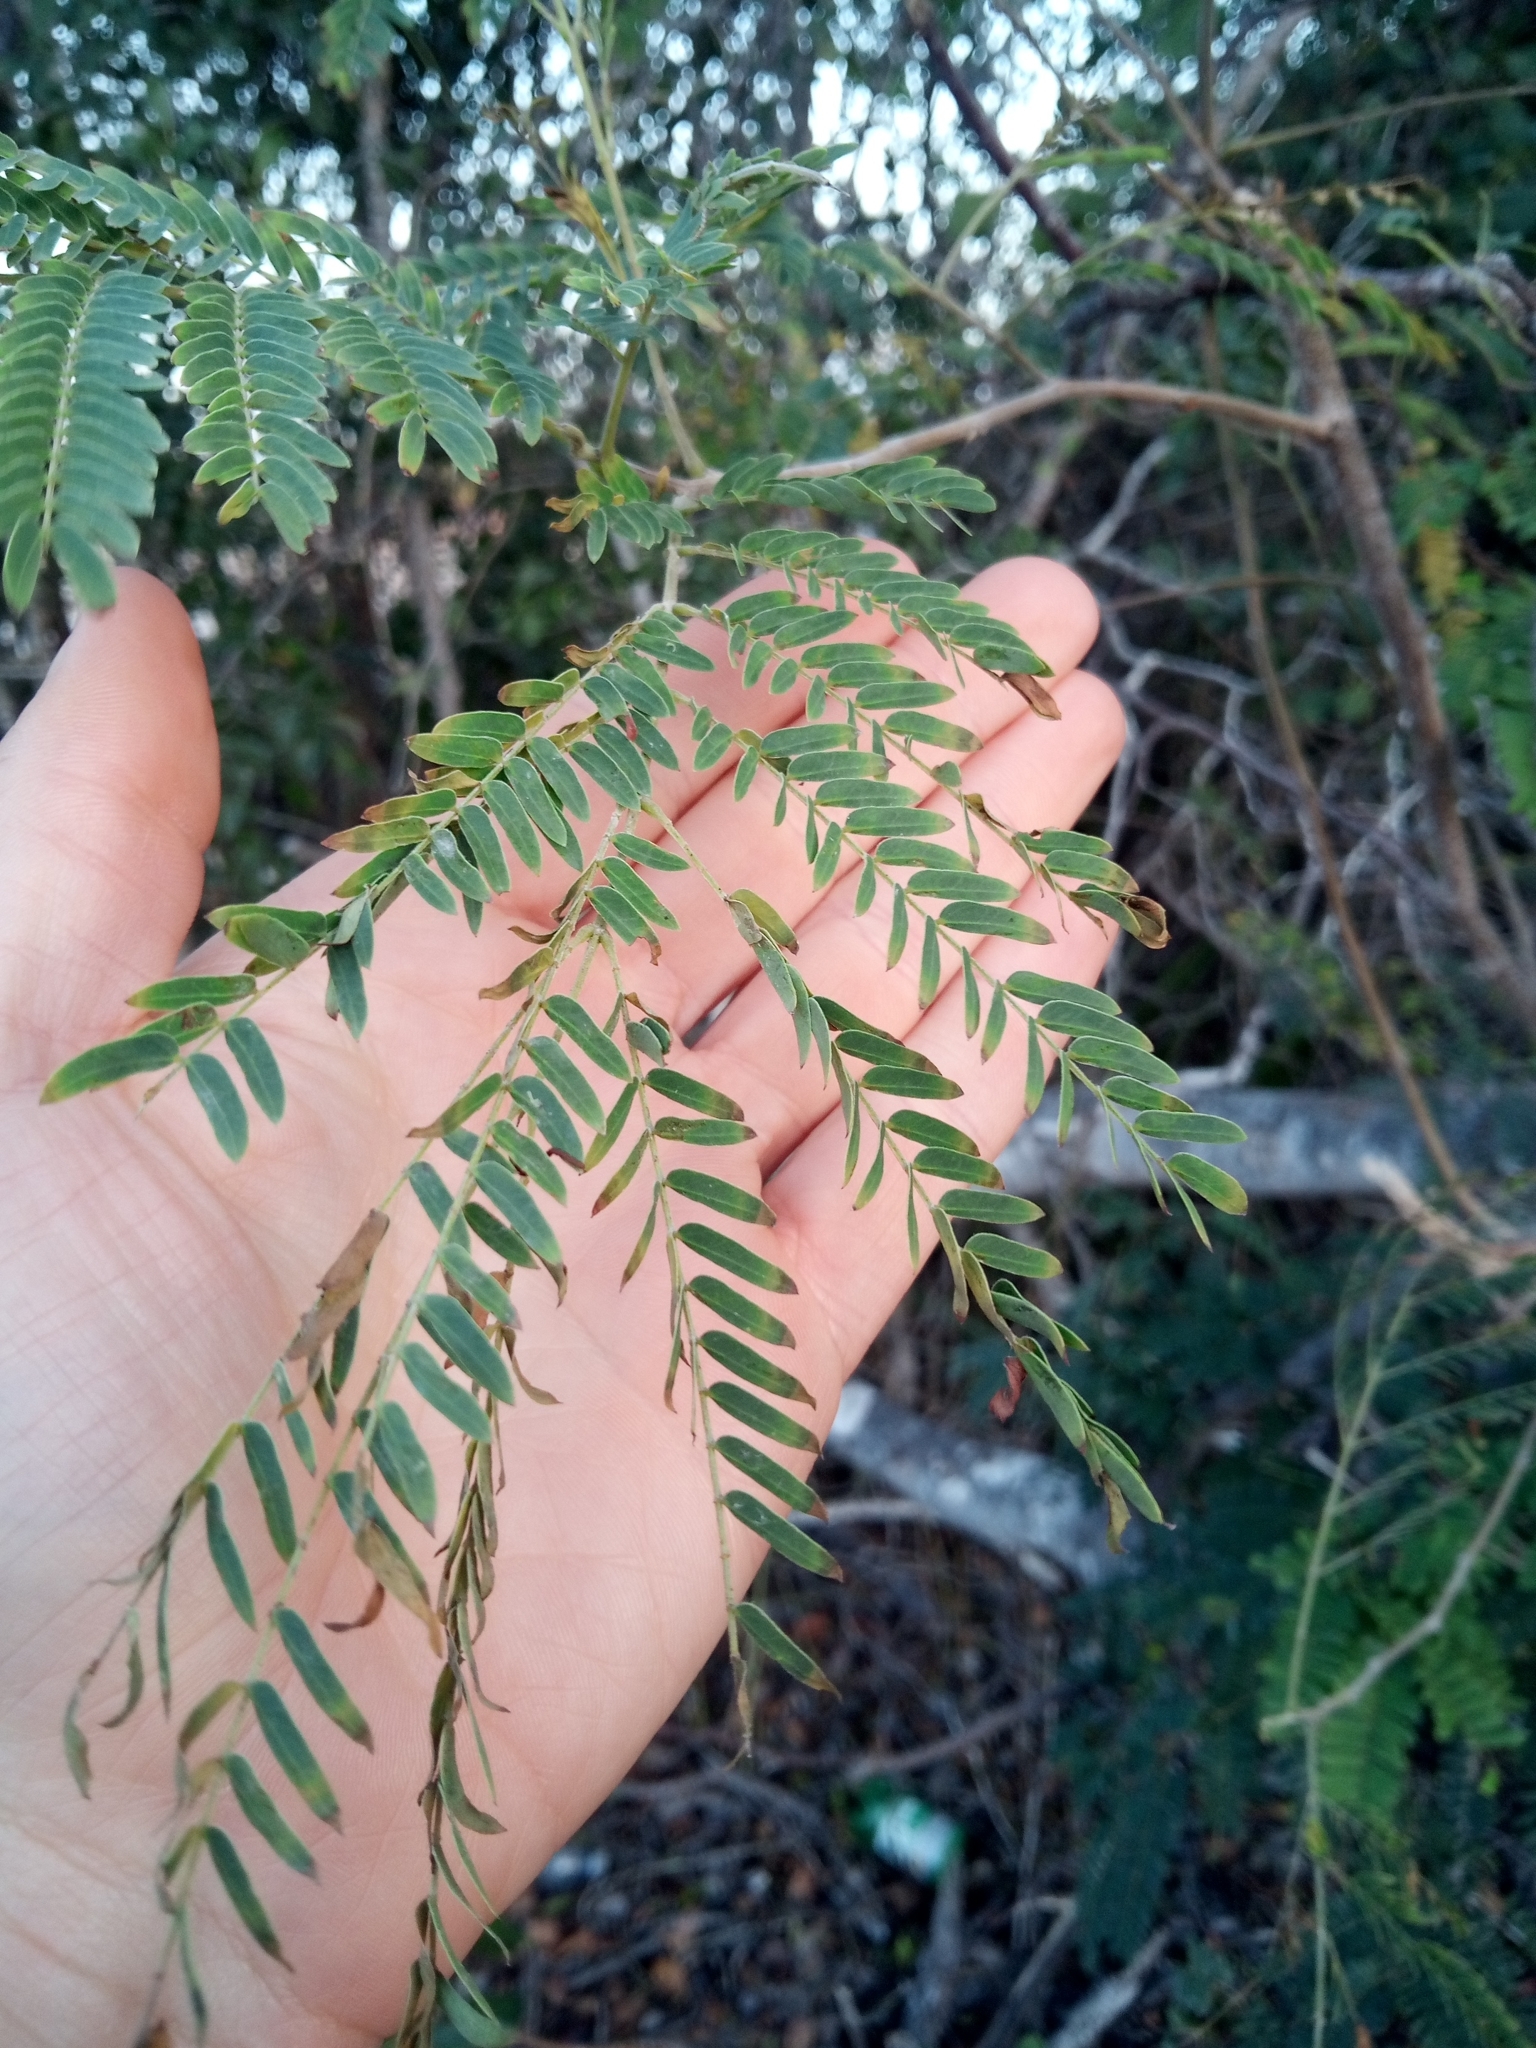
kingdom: Plantae
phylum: Tracheophyta
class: Magnoliopsida
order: Fabales
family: Fabaceae
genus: Leucaena
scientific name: Leucaena leucocephala
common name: White leadtree
